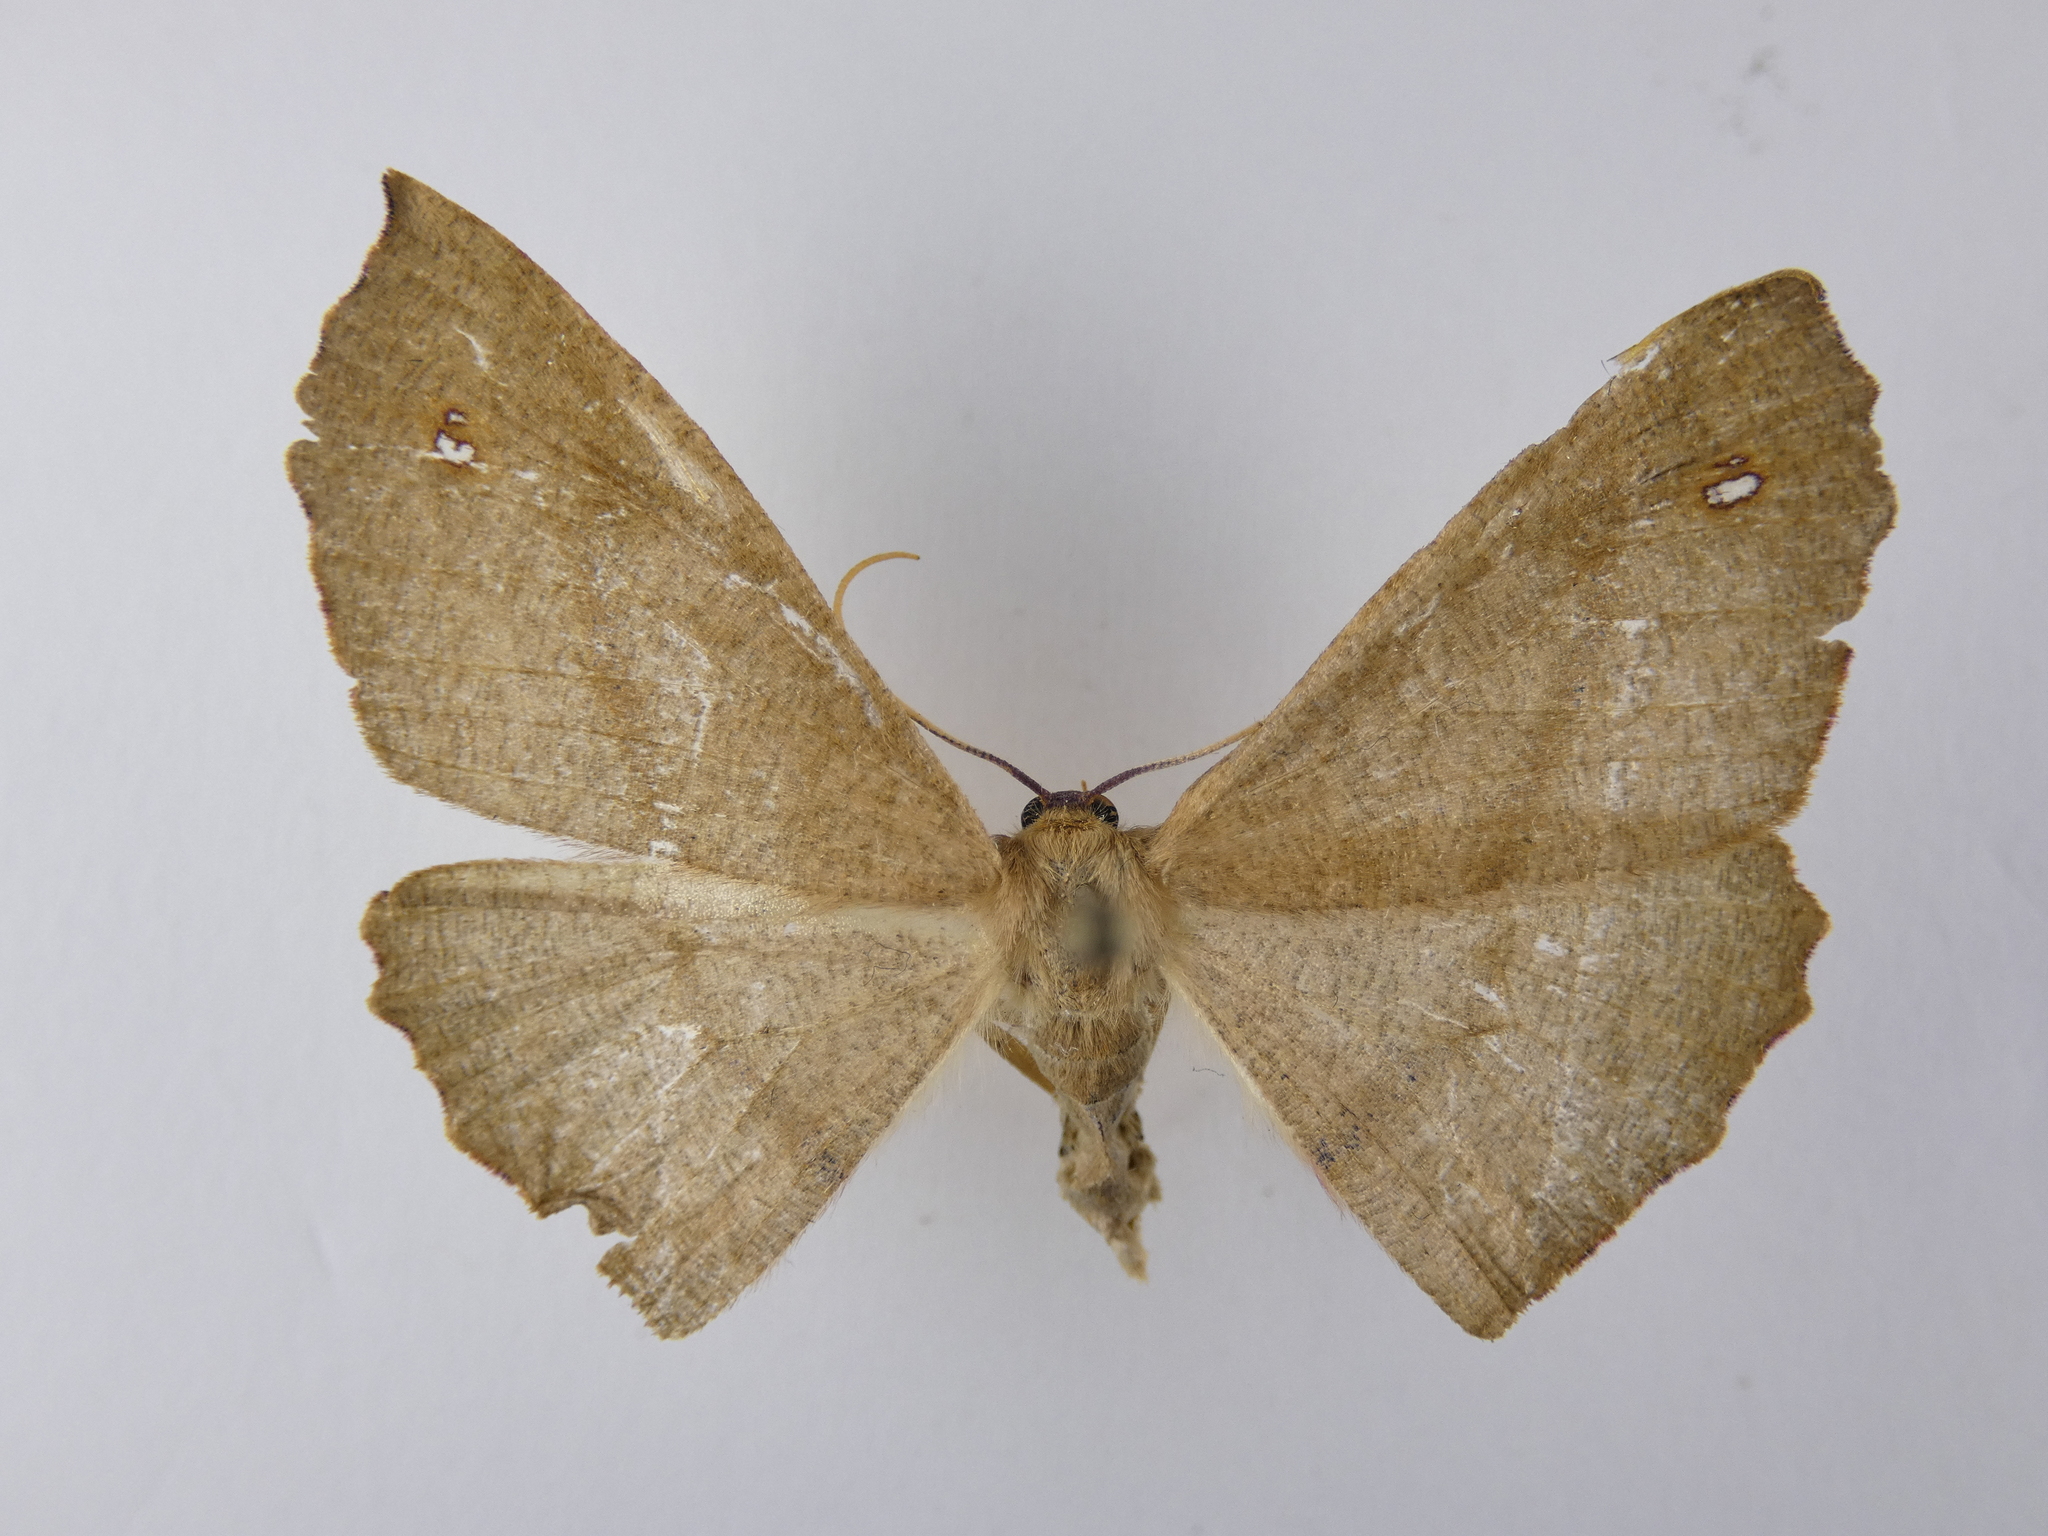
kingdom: Animalia
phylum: Arthropoda
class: Insecta
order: Lepidoptera
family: Geometridae
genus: Xyridacma
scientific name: Xyridacma alectoraria
